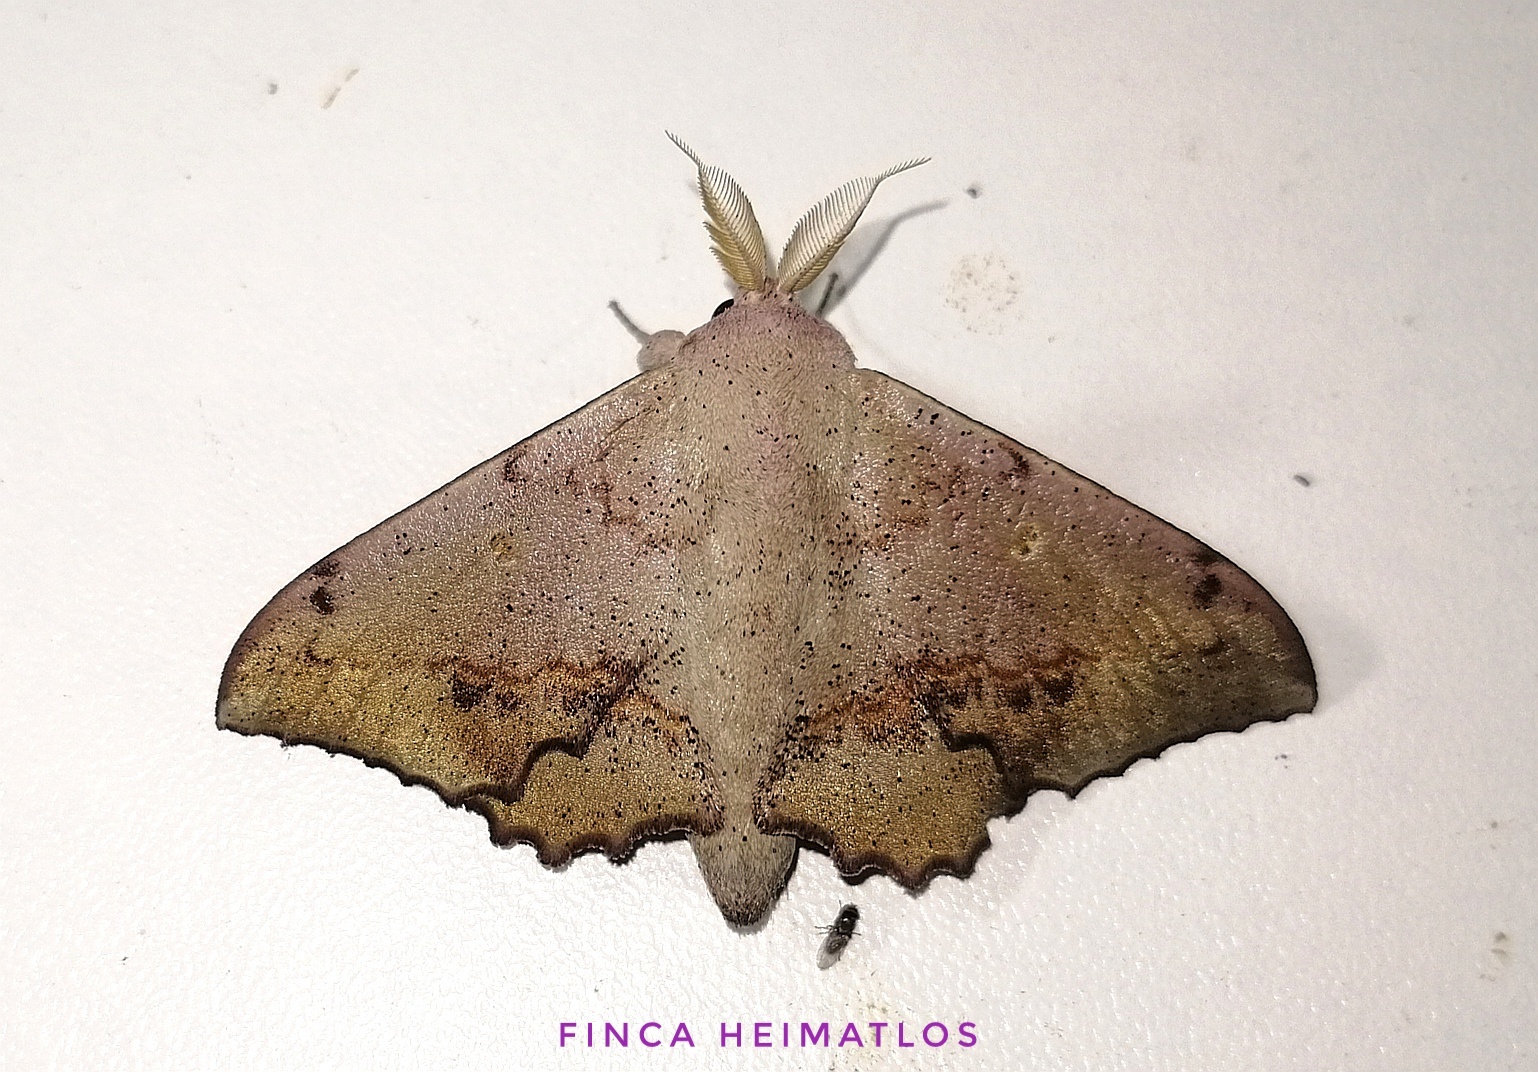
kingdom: Animalia
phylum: Arthropoda
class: Insecta
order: Lepidoptera
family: Mimallonidae
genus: Mimallo
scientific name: Mimallo brosica
